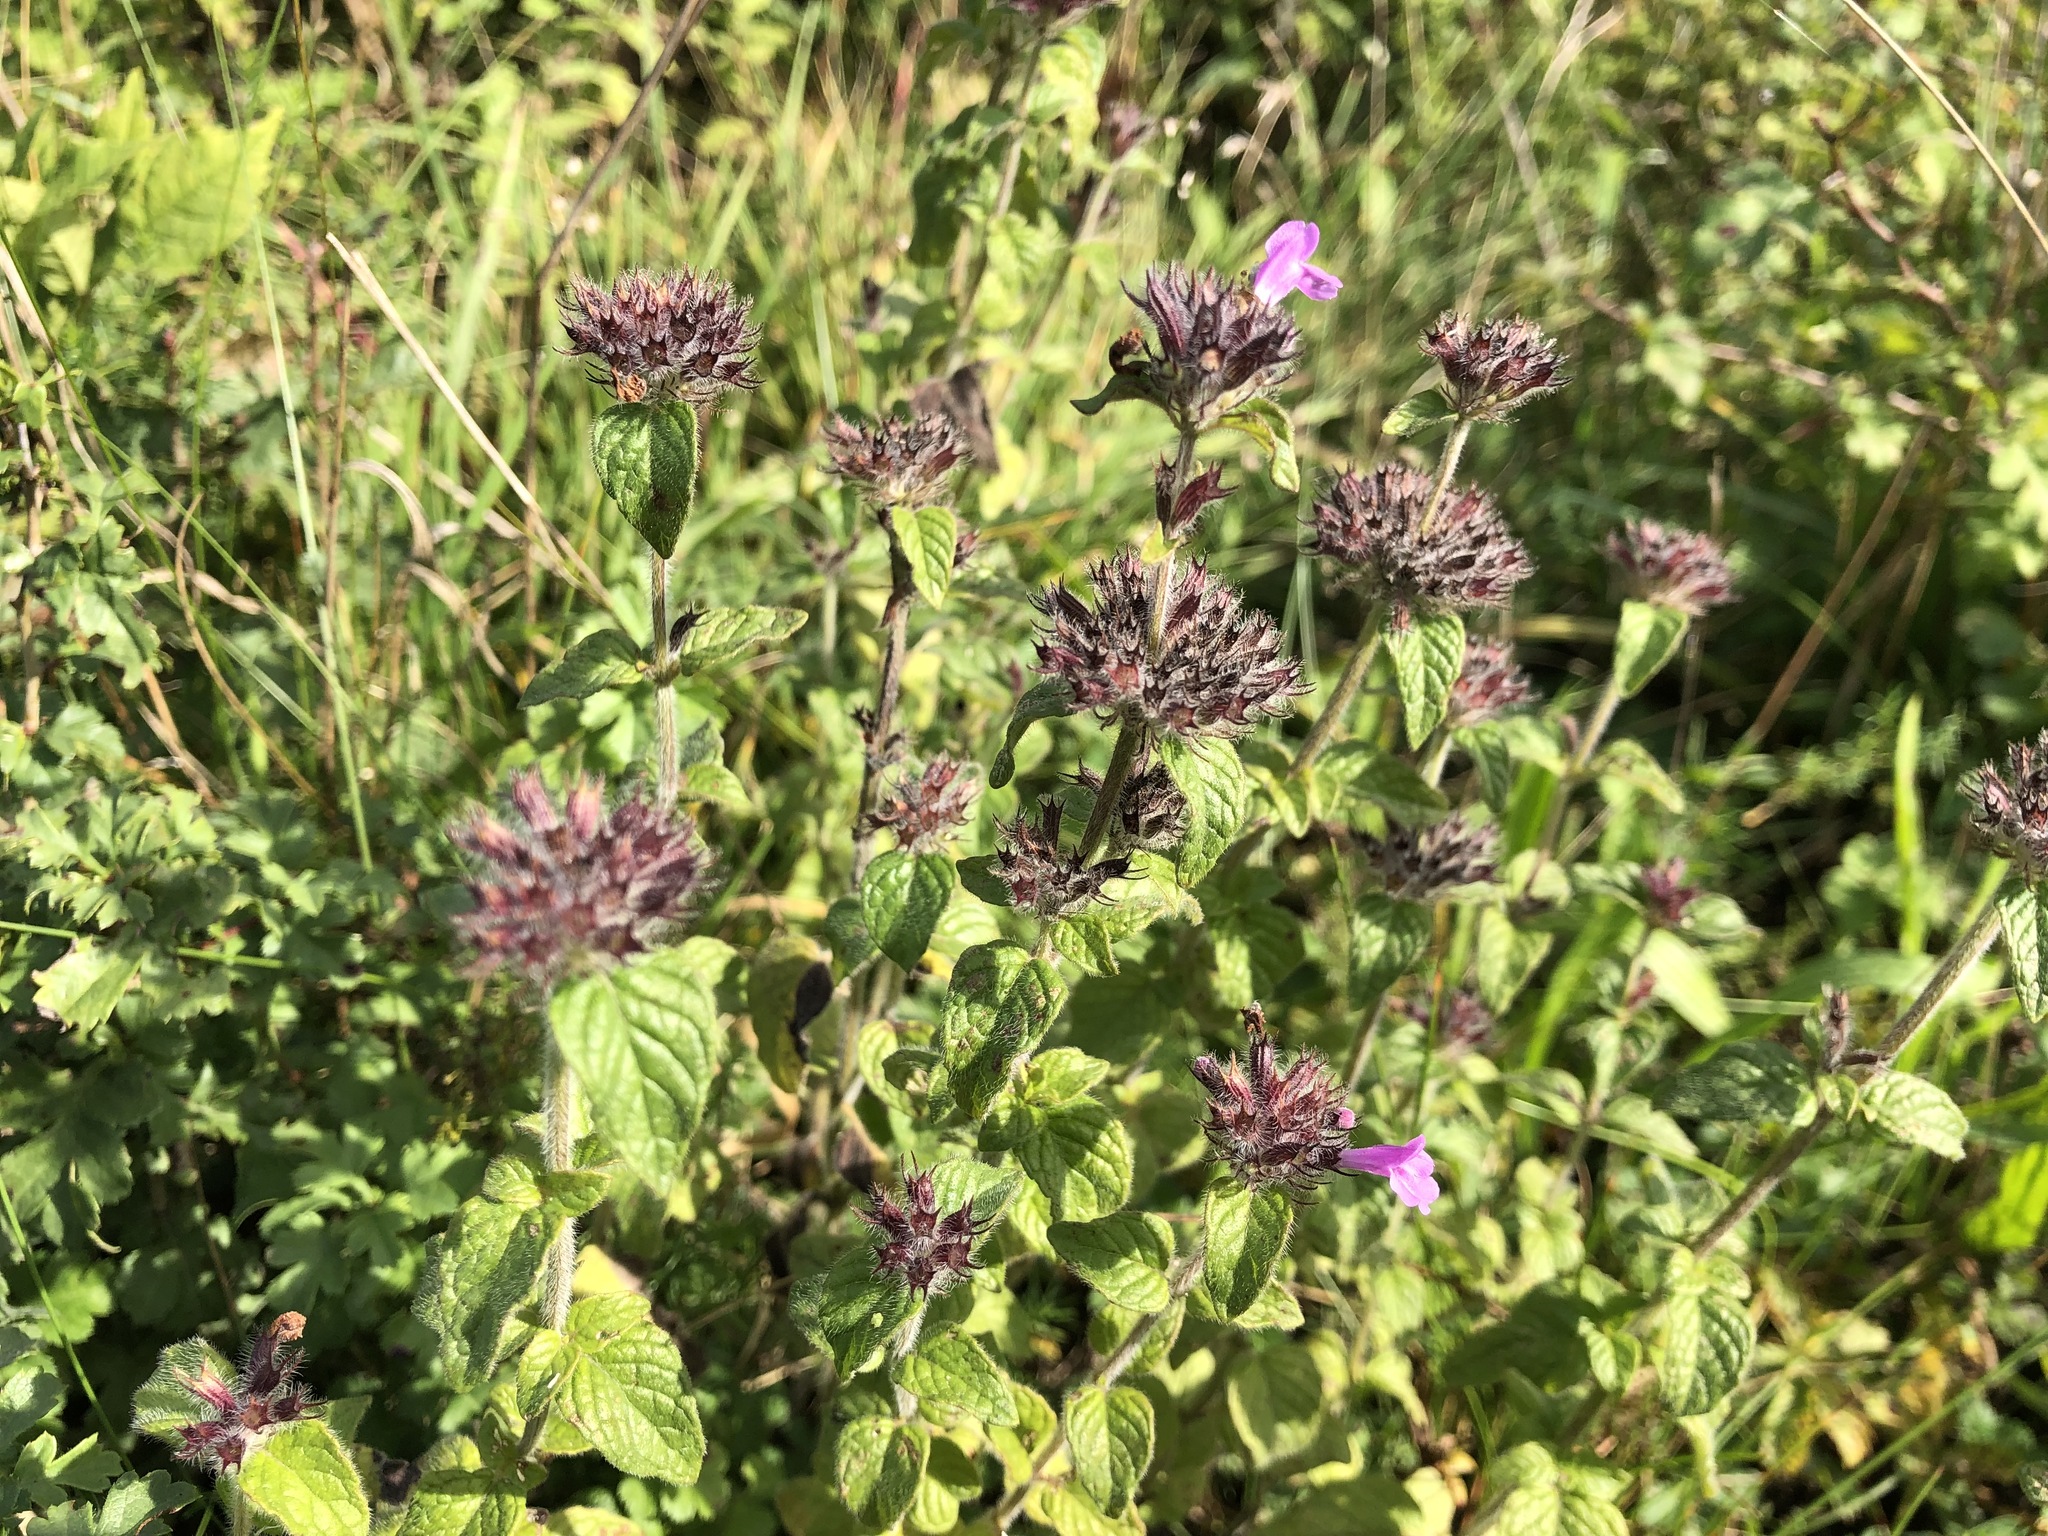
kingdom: Plantae
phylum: Tracheophyta
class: Magnoliopsida
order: Lamiales
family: Lamiaceae
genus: Clinopodium
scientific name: Clinopodium vulgare
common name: Wild basil
